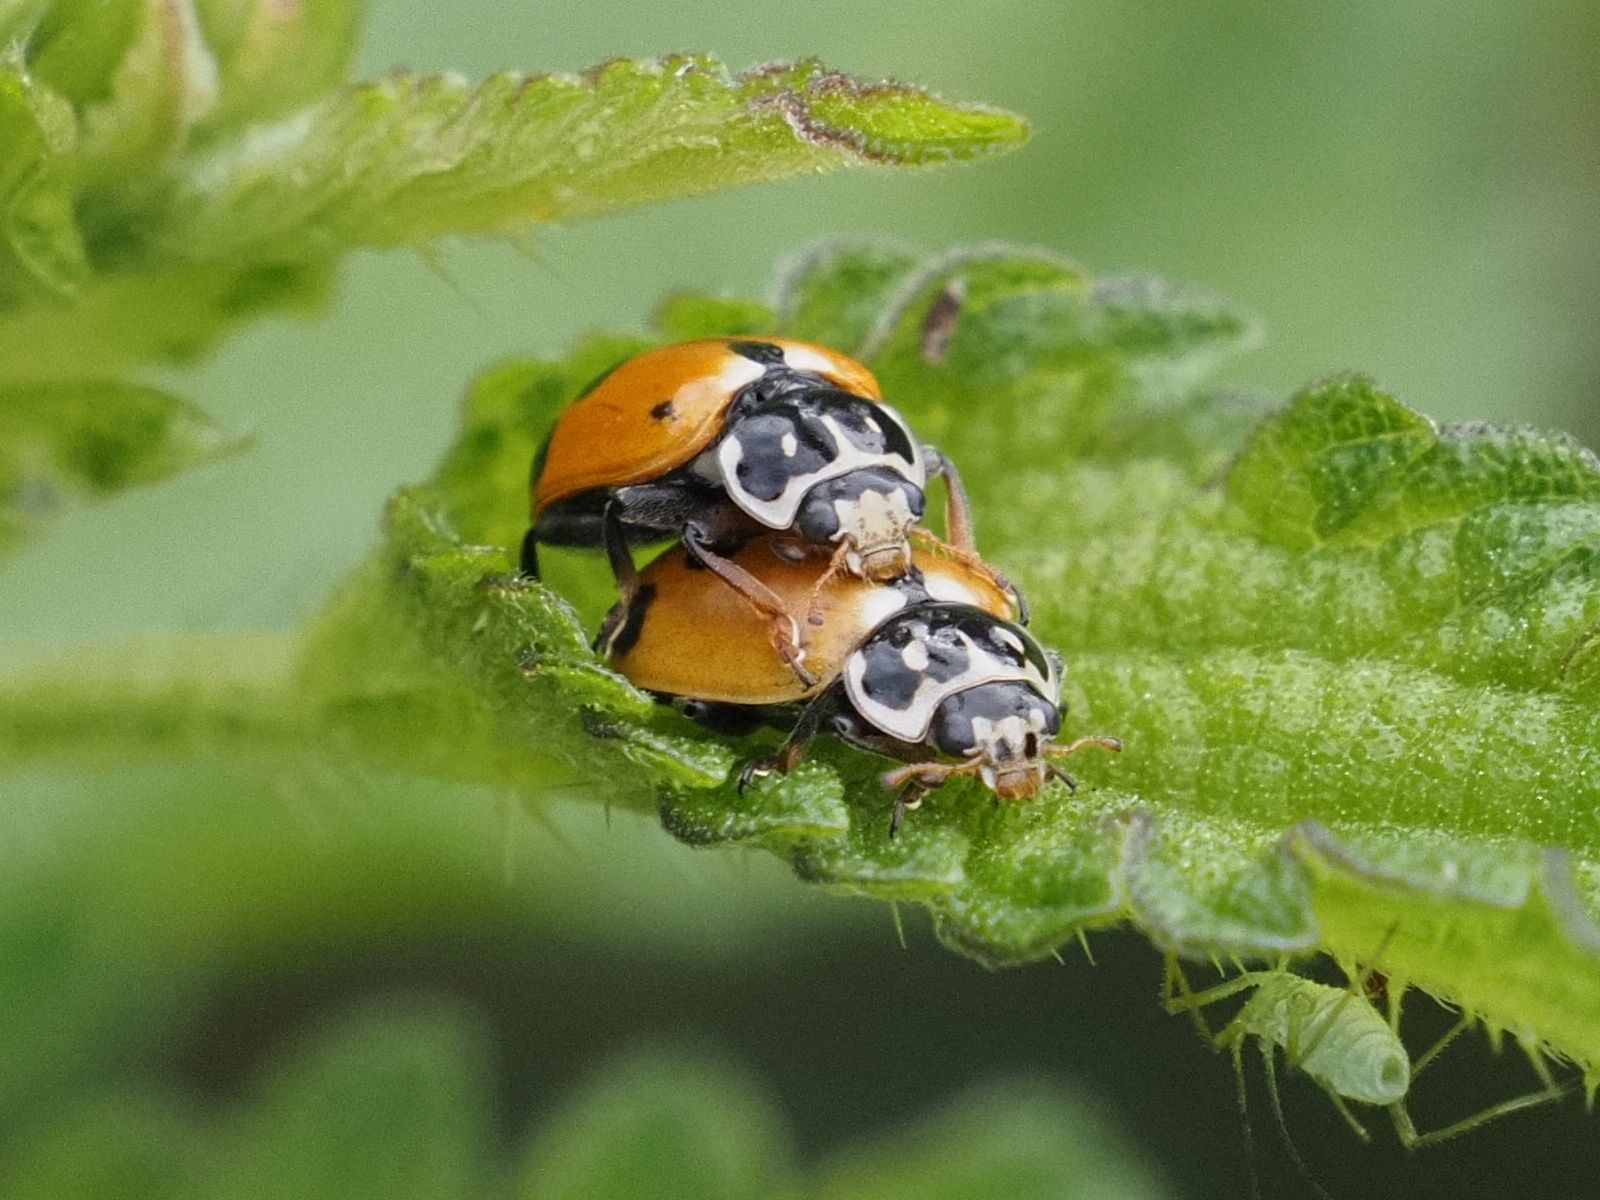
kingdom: Animalia
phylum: Arthropoda
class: Insecta
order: Coleoptera
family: Coccinellidae
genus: Hippodamia
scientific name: Hippodamia variegata
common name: Ladybird beetle
